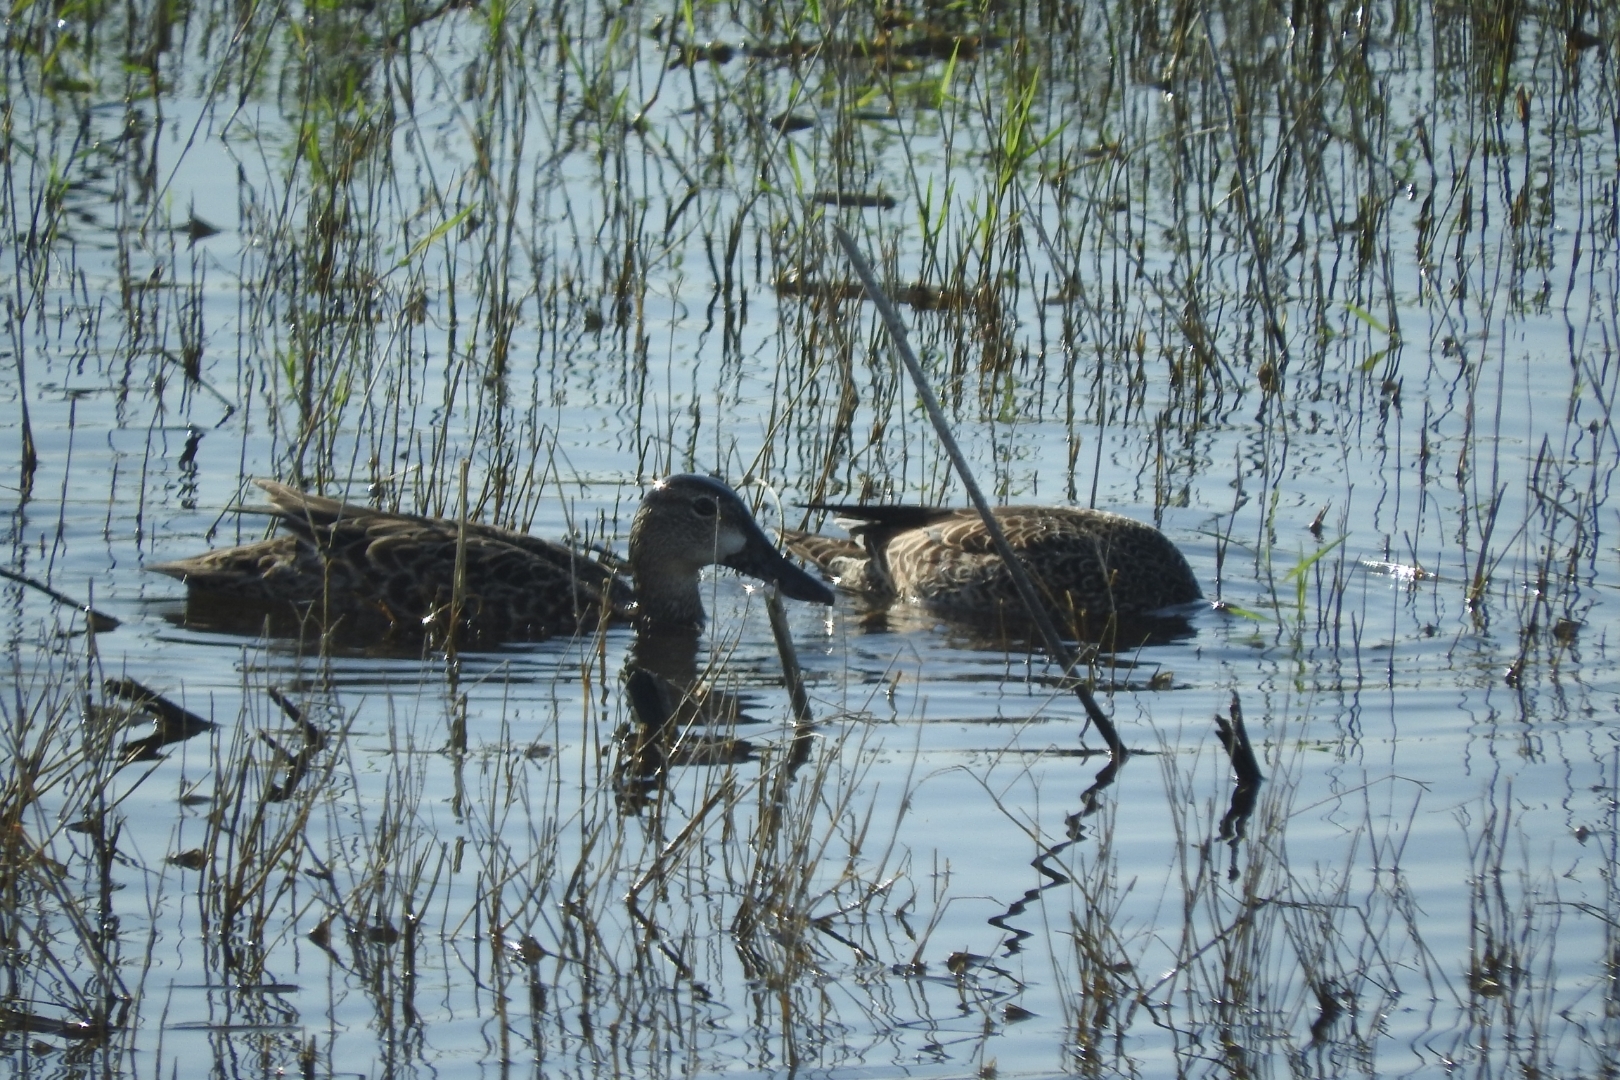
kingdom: Animalia
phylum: Chordata
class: Aves
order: Anseriformes
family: Anatidae
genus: Spatula
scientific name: Spatula discors
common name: Blue-winged teal
